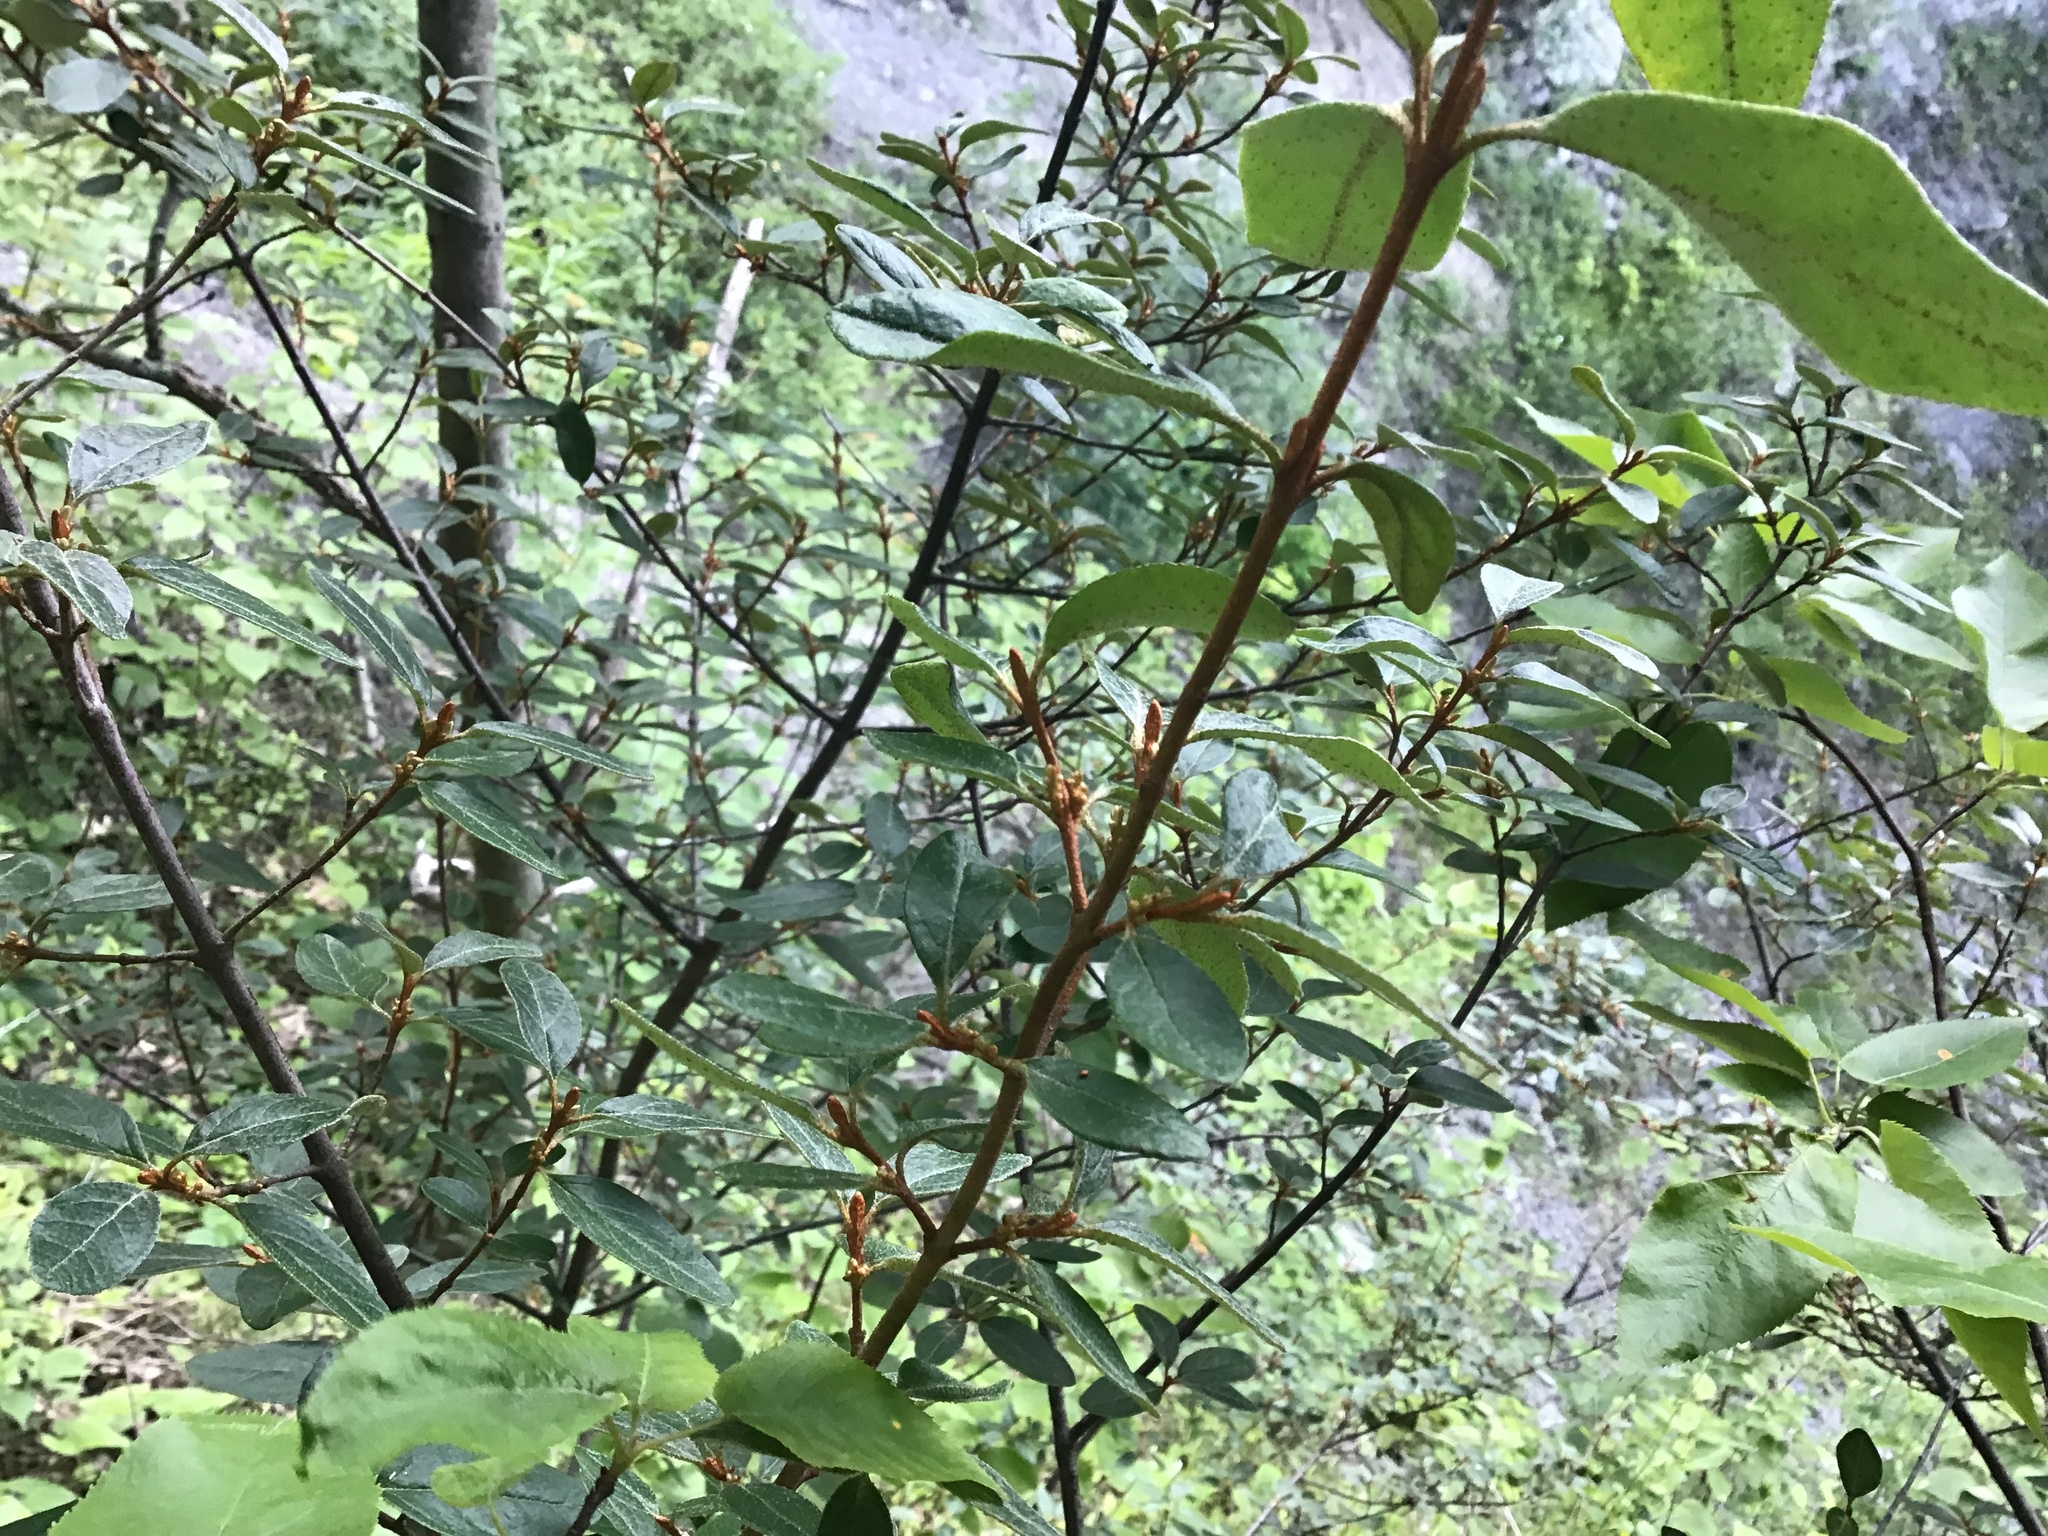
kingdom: Plantae
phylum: Tracheophyta
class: Magnoliopsida
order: Rosales
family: Elaeagnaceae
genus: Shepherdia
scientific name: Shepherdia canadensis
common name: Soapberry
